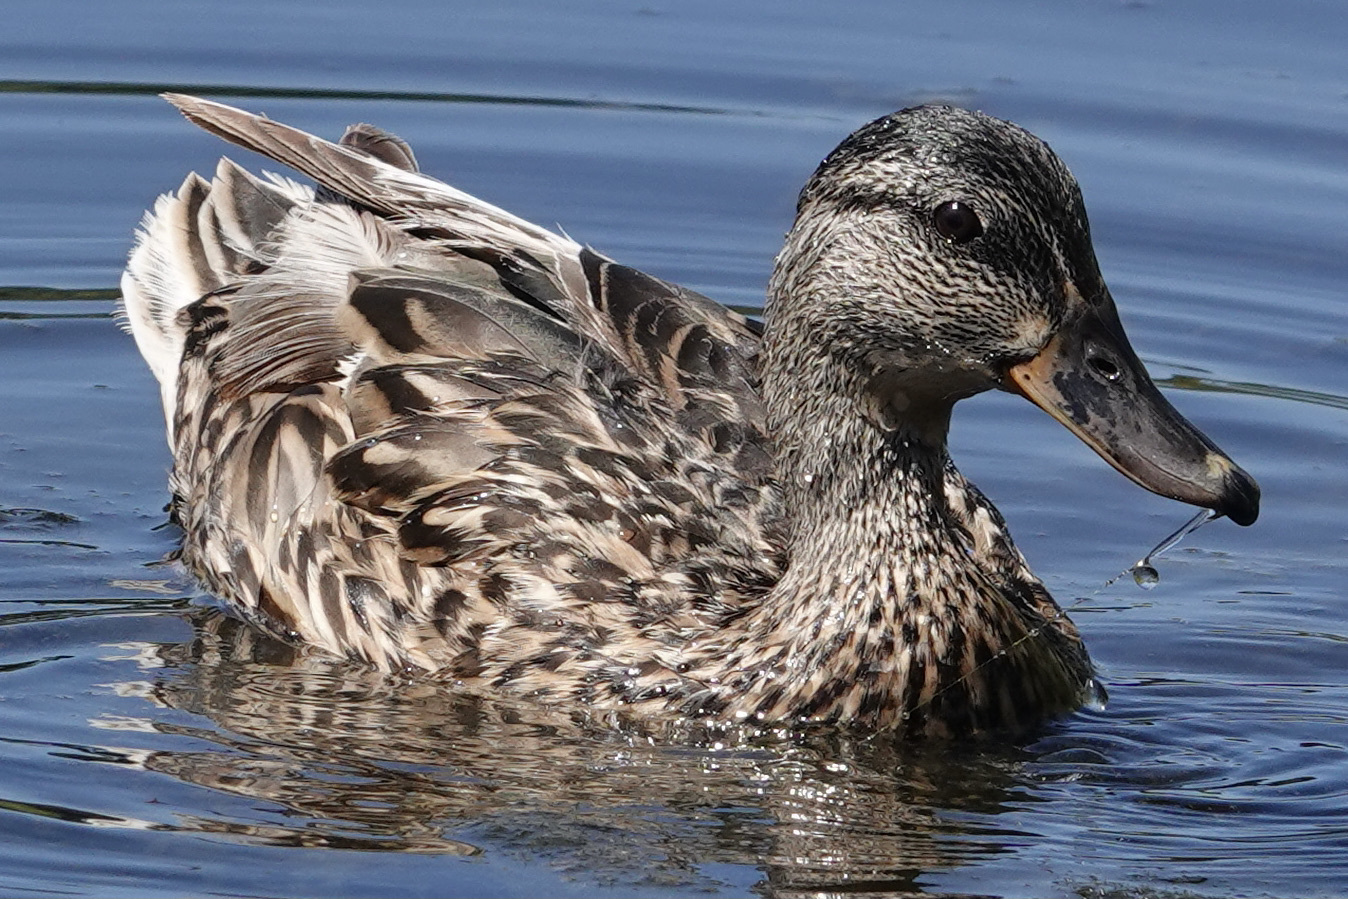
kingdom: Animalia
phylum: Chordata
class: Aves
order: Anseriformes
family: Anatidae
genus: Anas
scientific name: Anas platyrhynchos
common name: Mallard
